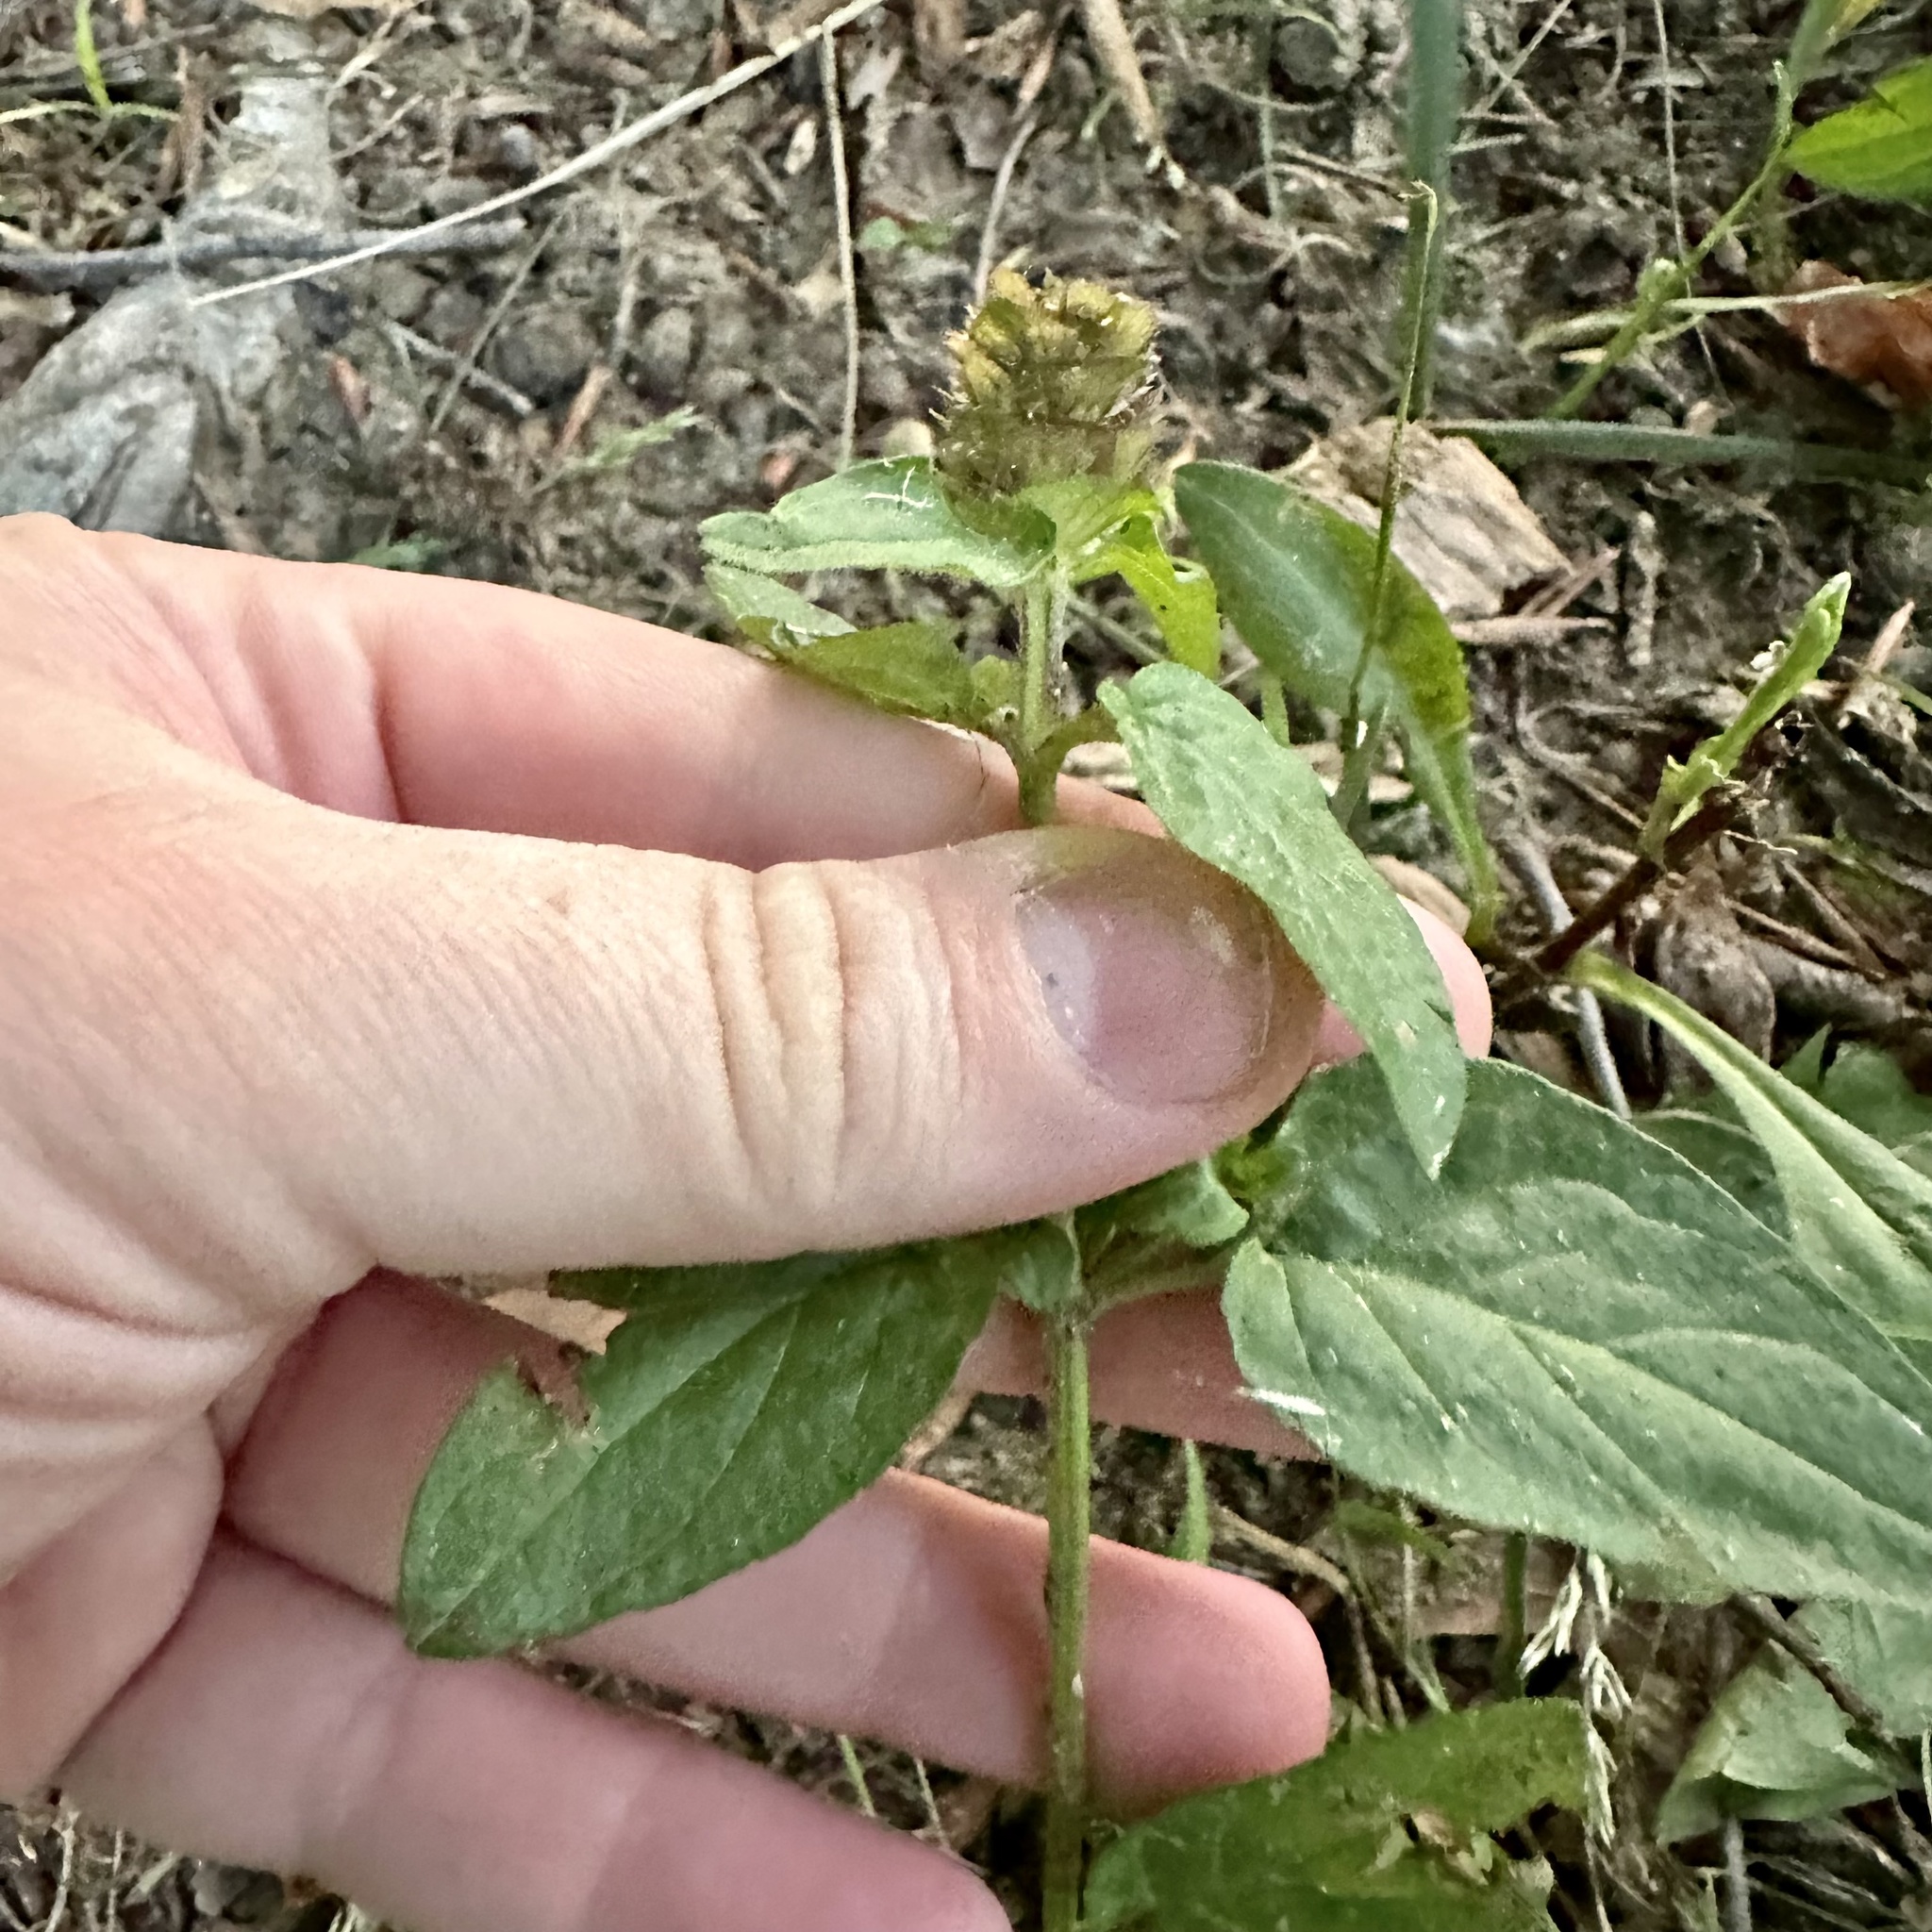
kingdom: Plantae
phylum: Tracheophyta
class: Magnoliopsida
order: Lamiales
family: Lamiaceae
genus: Prunella
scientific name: Prunella vulgaris
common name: Heal-all
